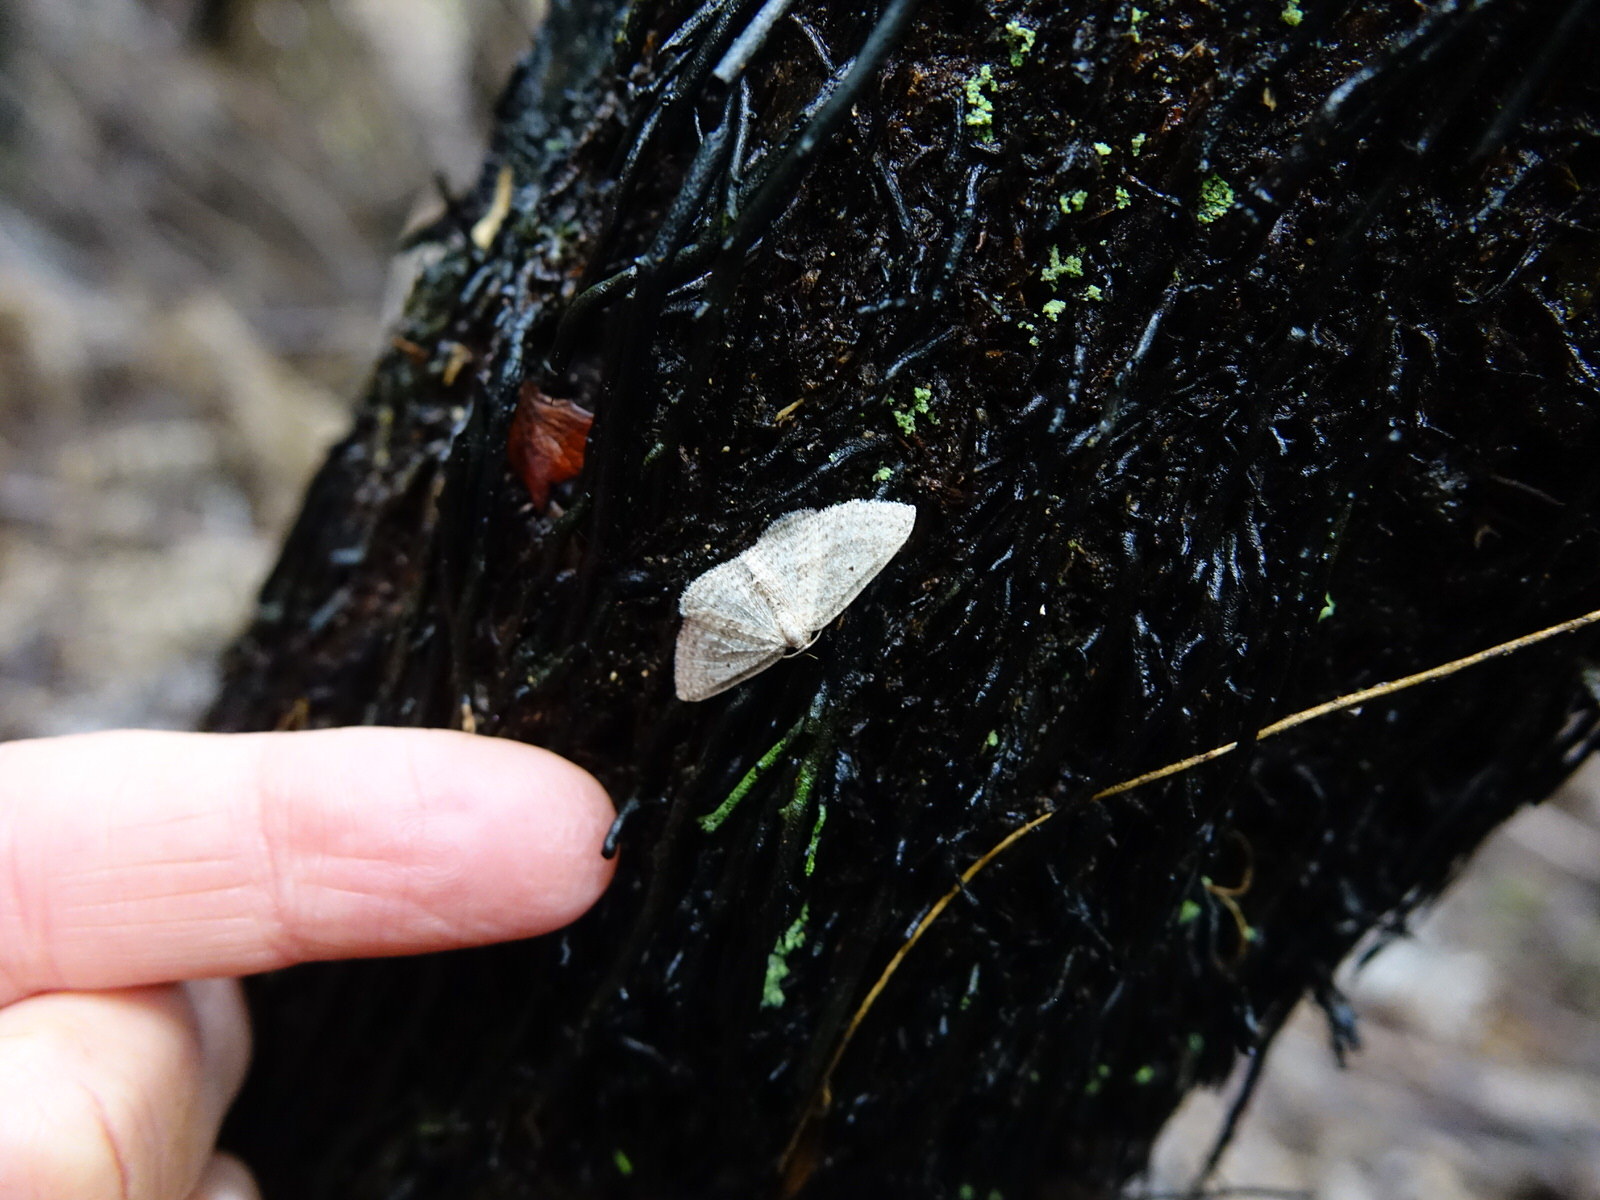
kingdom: Animalia
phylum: Arthropoda
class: Insecta
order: Lepidoptera
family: Geometridae
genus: Poecilasthena
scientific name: Poecilasthena pulchraria
